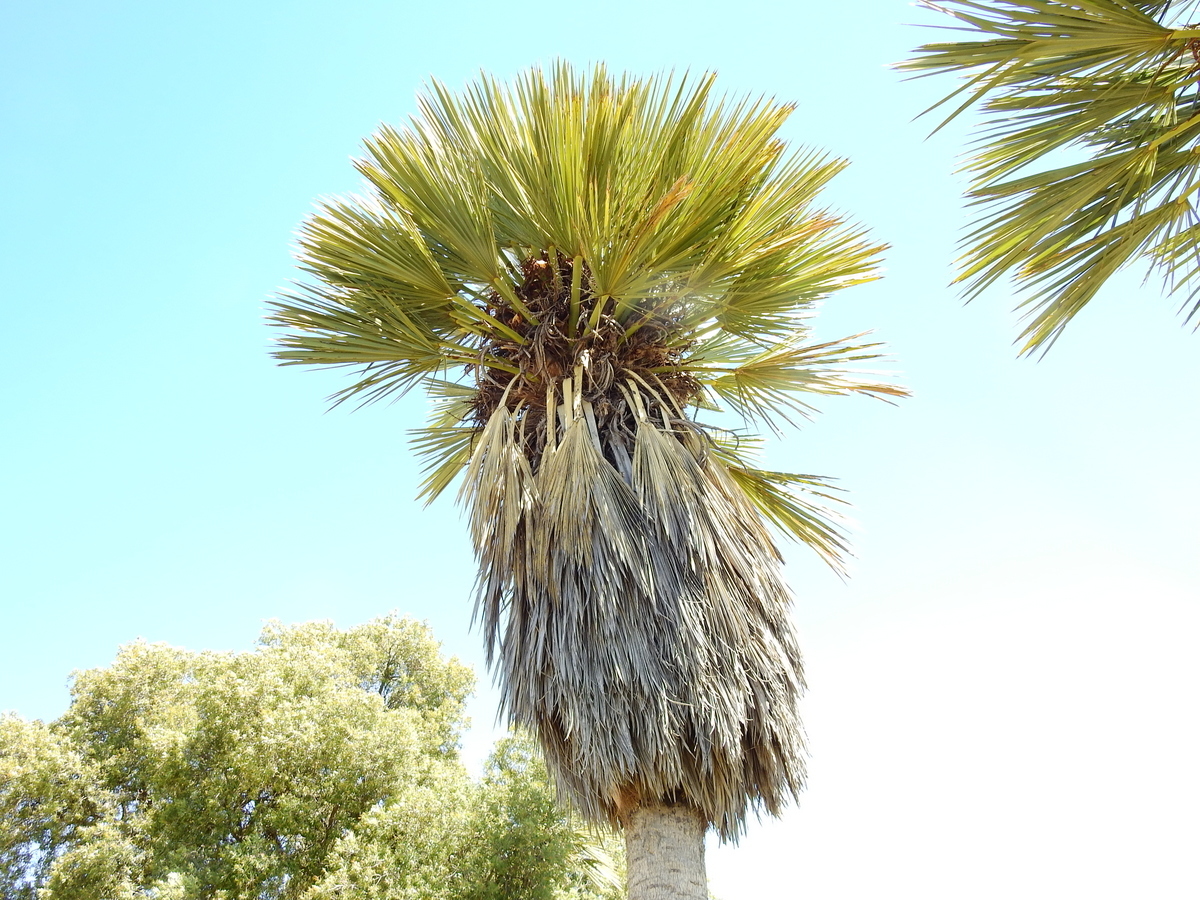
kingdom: Plantae
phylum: Tracheophyta
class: Liliopsida
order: Arecales
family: Arecaceae
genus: Trithrinax
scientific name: Trithrinax campestris
